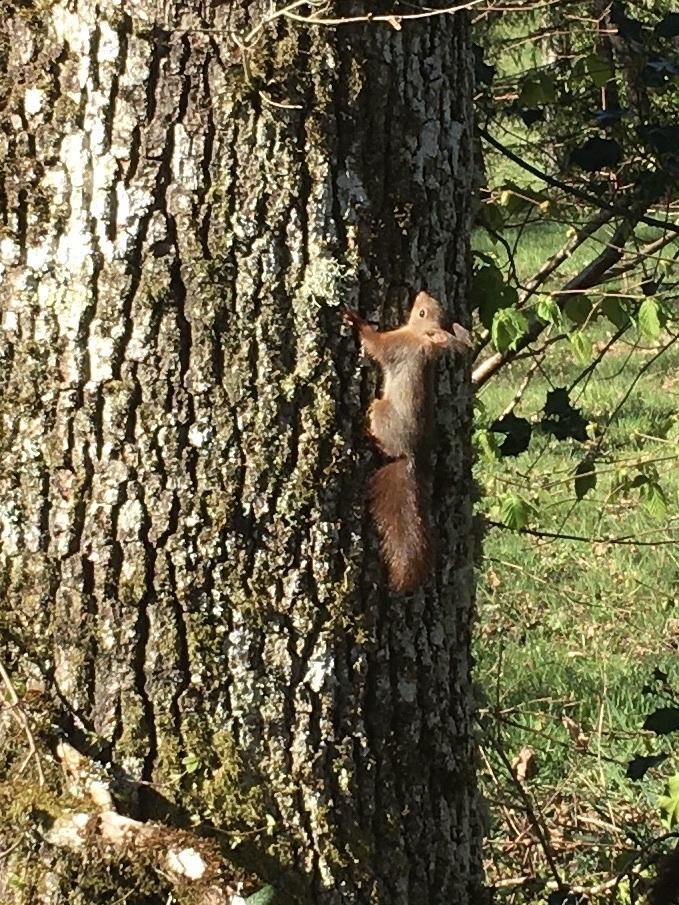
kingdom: Animalia
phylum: Chordata
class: Mammalia
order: Rodentia
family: Sciuridae
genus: Sciurus
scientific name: Sciurus vulgaris
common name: Eurasian red squirrel
